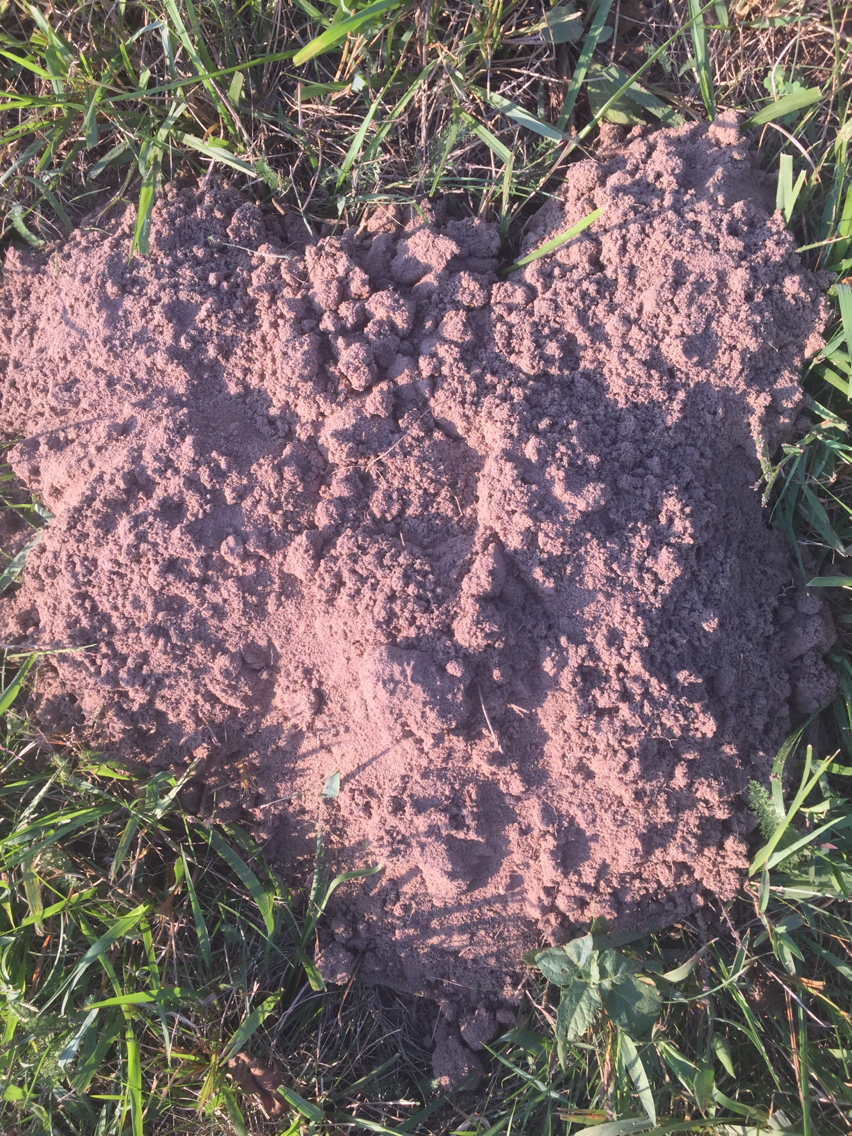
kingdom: Animalia
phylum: Chordata
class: Mammalia
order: Rodentia
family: Geomyidae
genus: Geomys
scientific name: Geomys bursarius
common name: Plains pocket gopher
